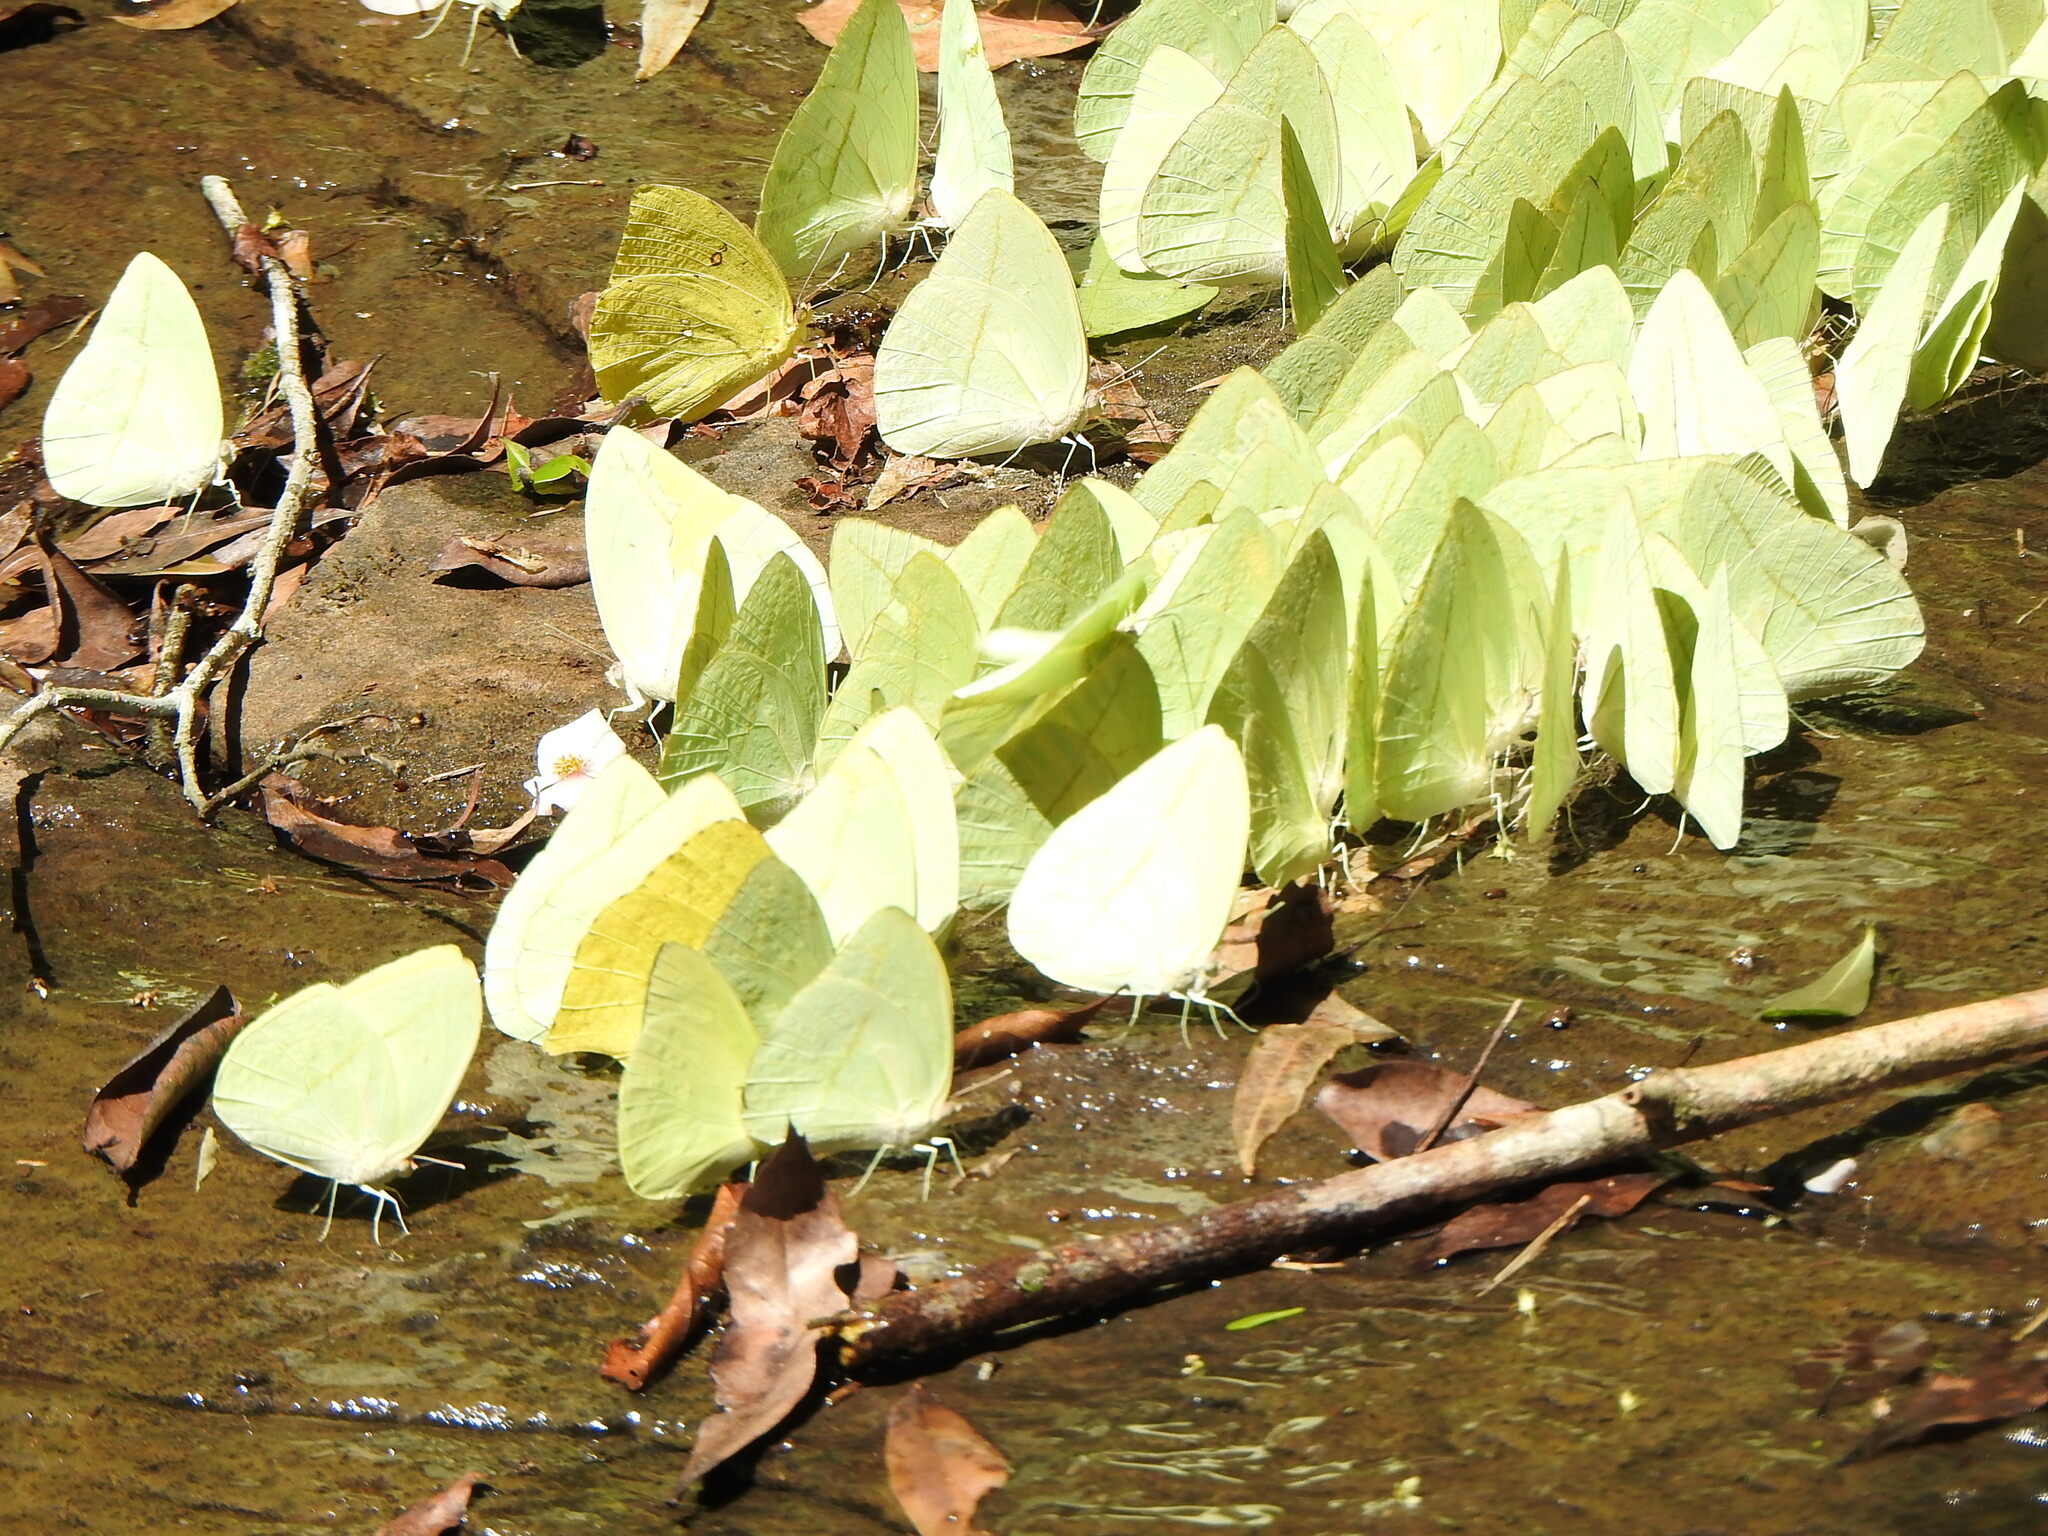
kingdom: Animalia
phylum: Arthropoda
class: Insecta
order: Lepidoptera
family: Pieridae
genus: Rhabdodryas
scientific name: Rhabdodryas trite
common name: Straight-lined sulphur
